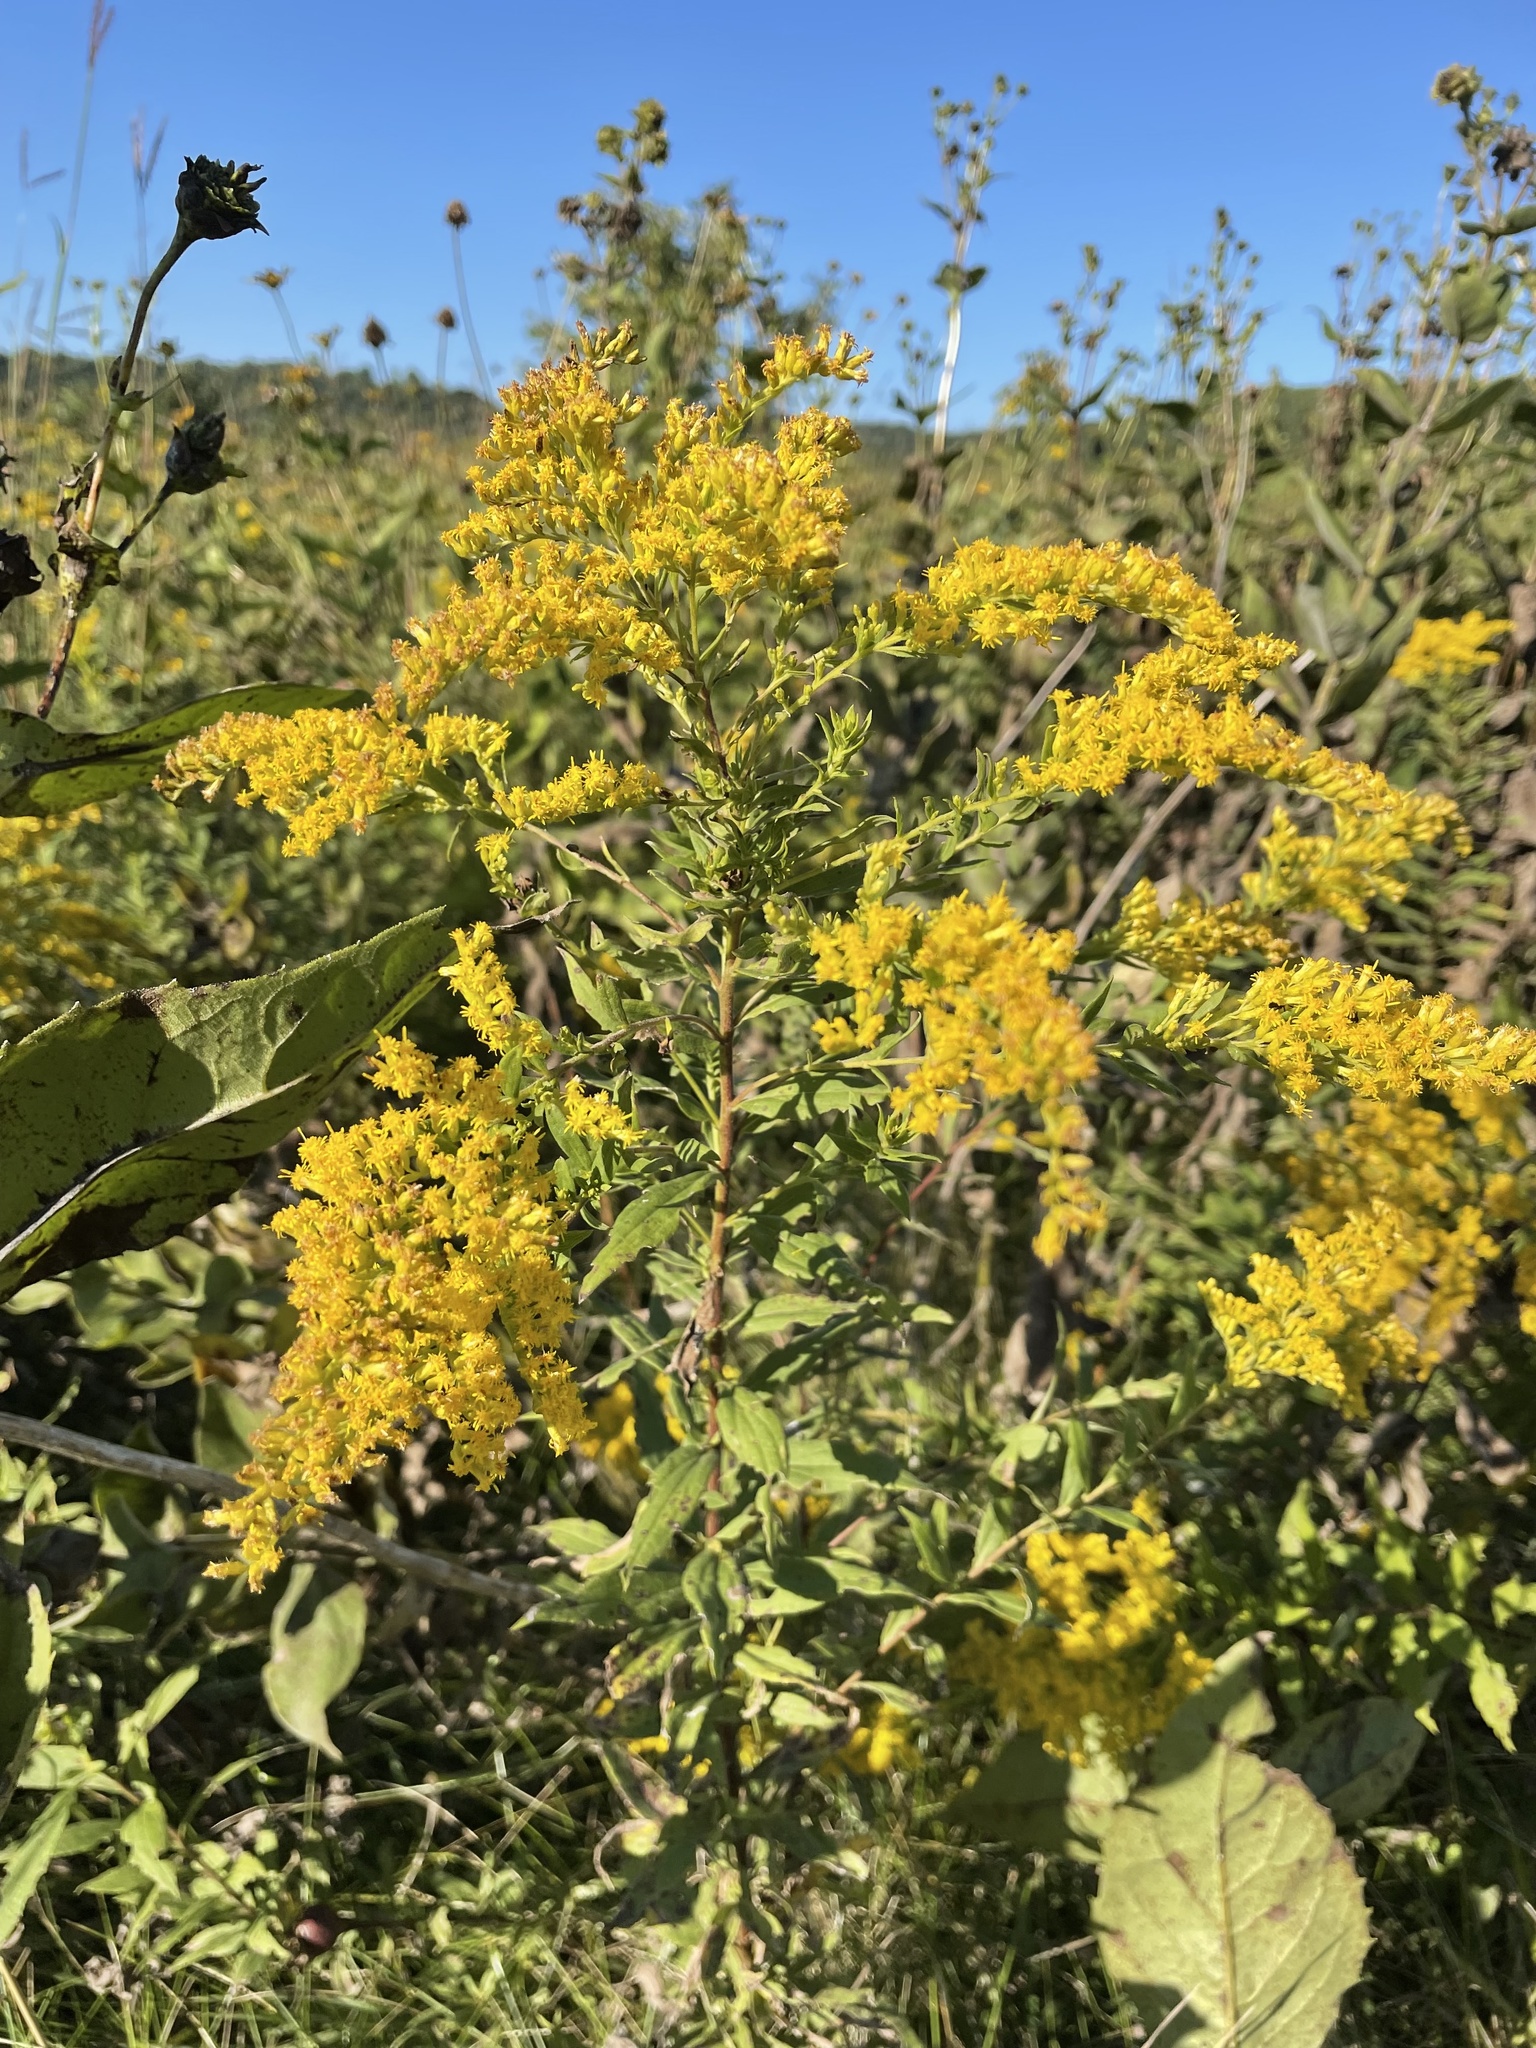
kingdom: Plantae
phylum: Tracheophyta
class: Magnoliopsida
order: Asterales
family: Asteraceae
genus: Solidago
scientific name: Solidago canadensis
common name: Canada goldenrod
